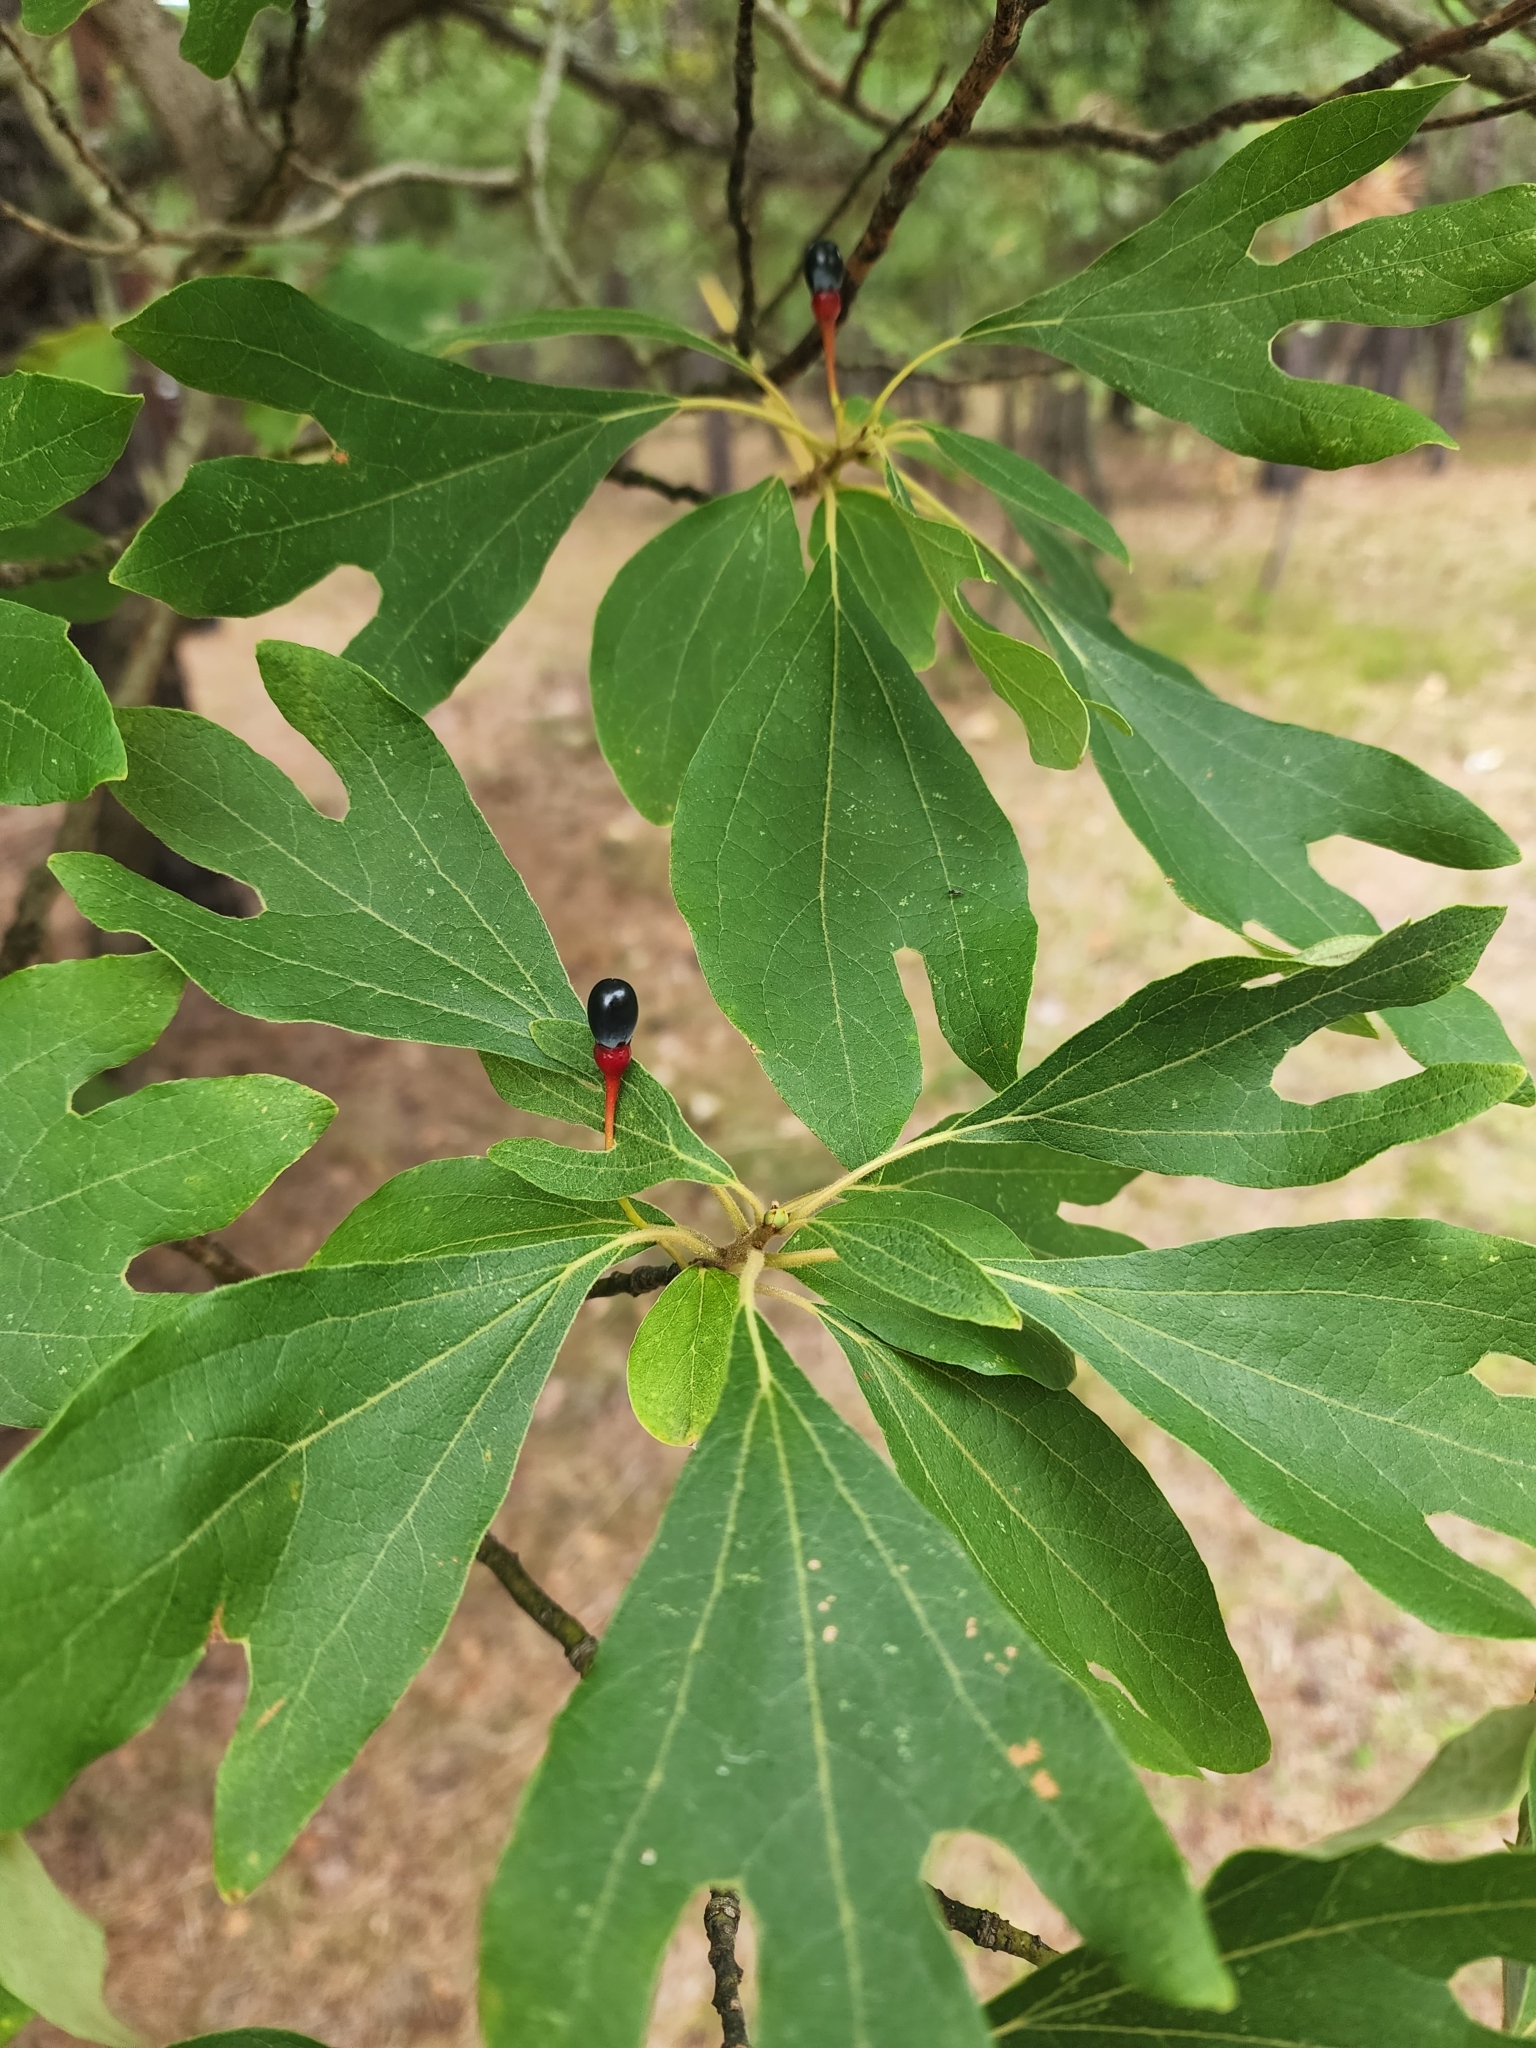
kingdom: Plantae
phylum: Tracheophyta
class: Magnoliopsida
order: Laurales
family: Lauraceae
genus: Sassafras
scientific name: Sassafras albidum
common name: Sassafras
